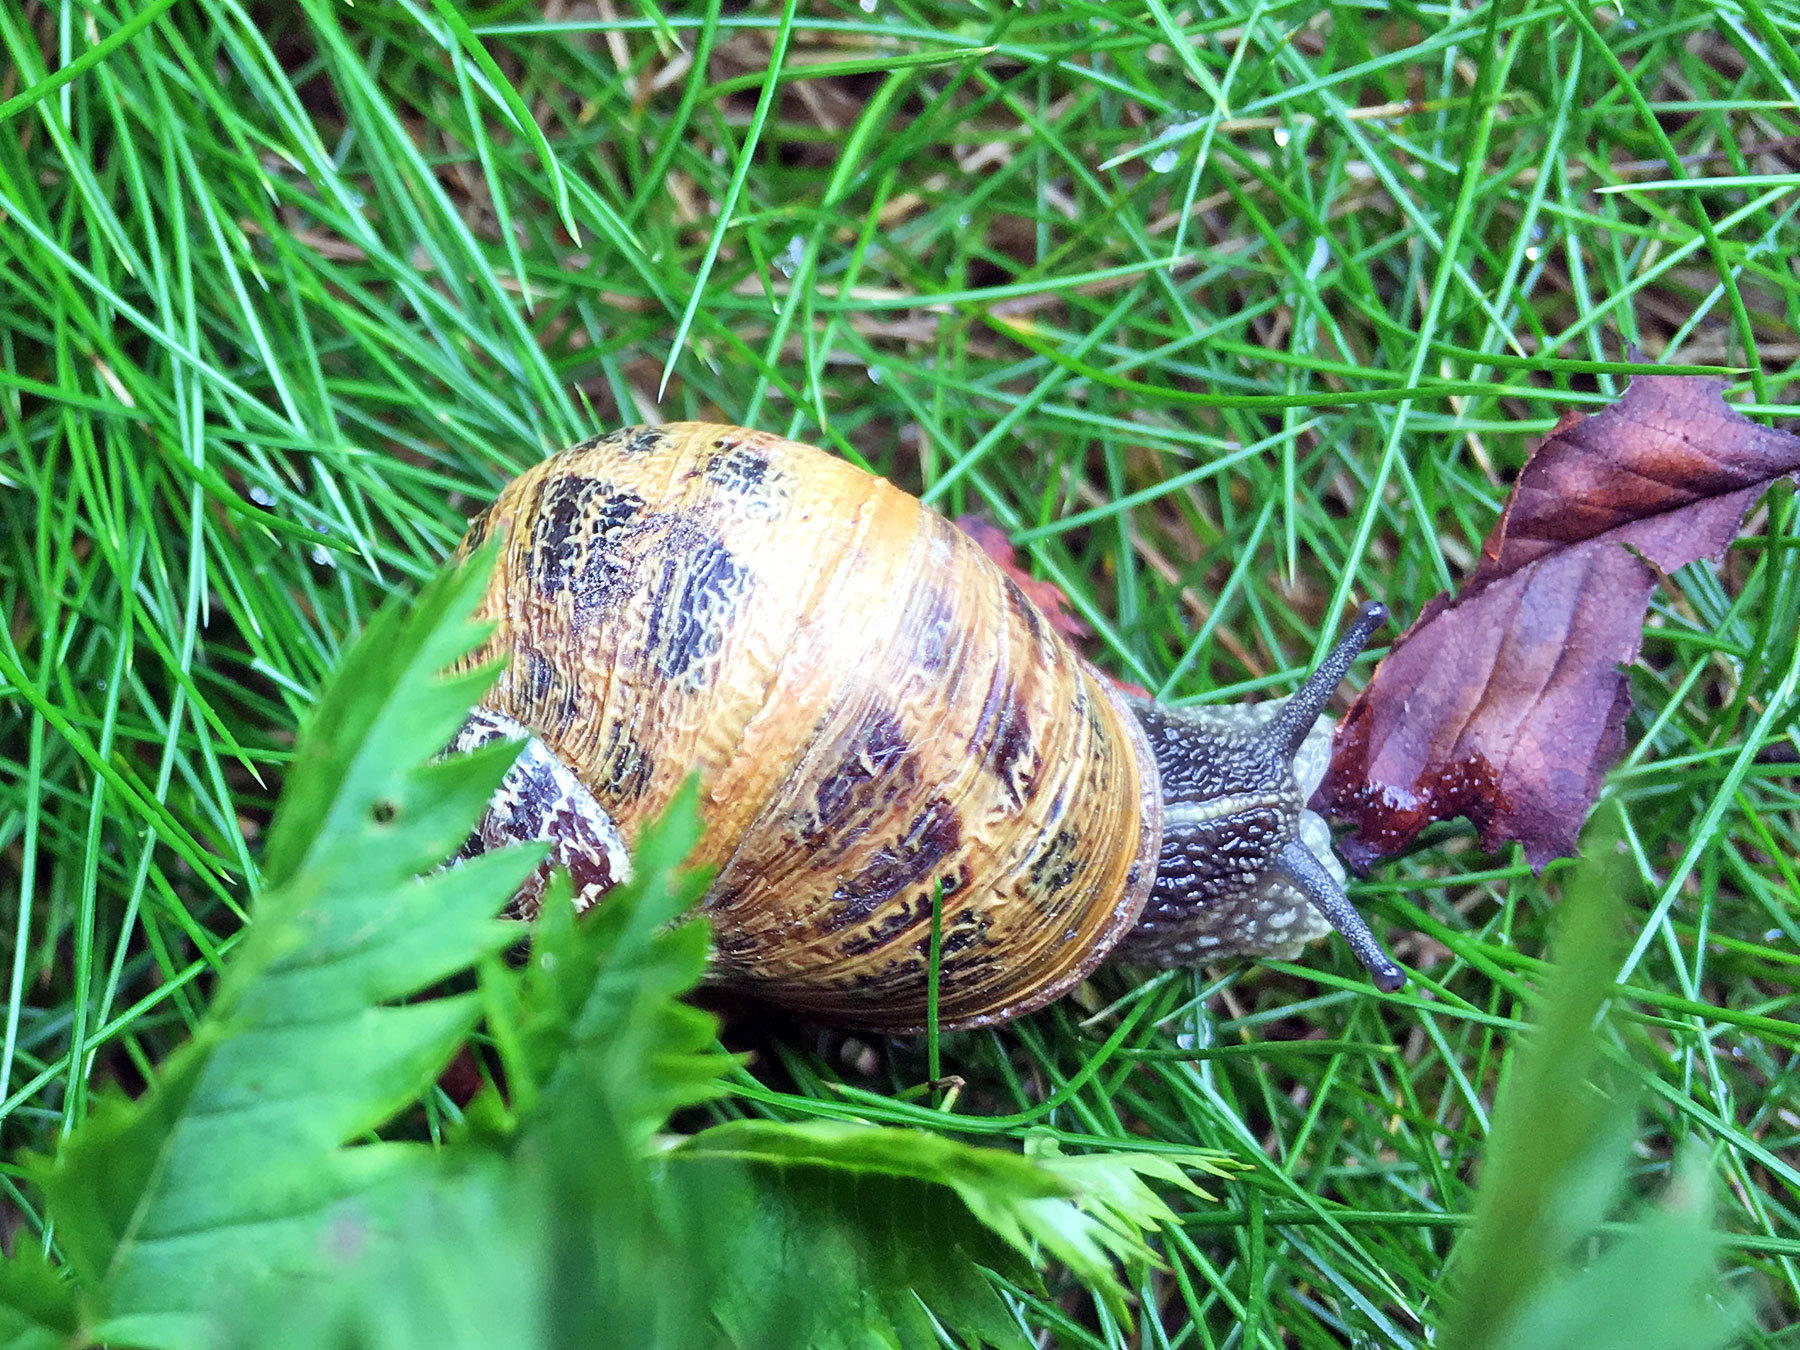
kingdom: Animalia
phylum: Mollusca
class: Gastropoda
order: Stylommatophora
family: Helicidae
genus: Cornu
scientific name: Cornu aspersum
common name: Brown garden snail
